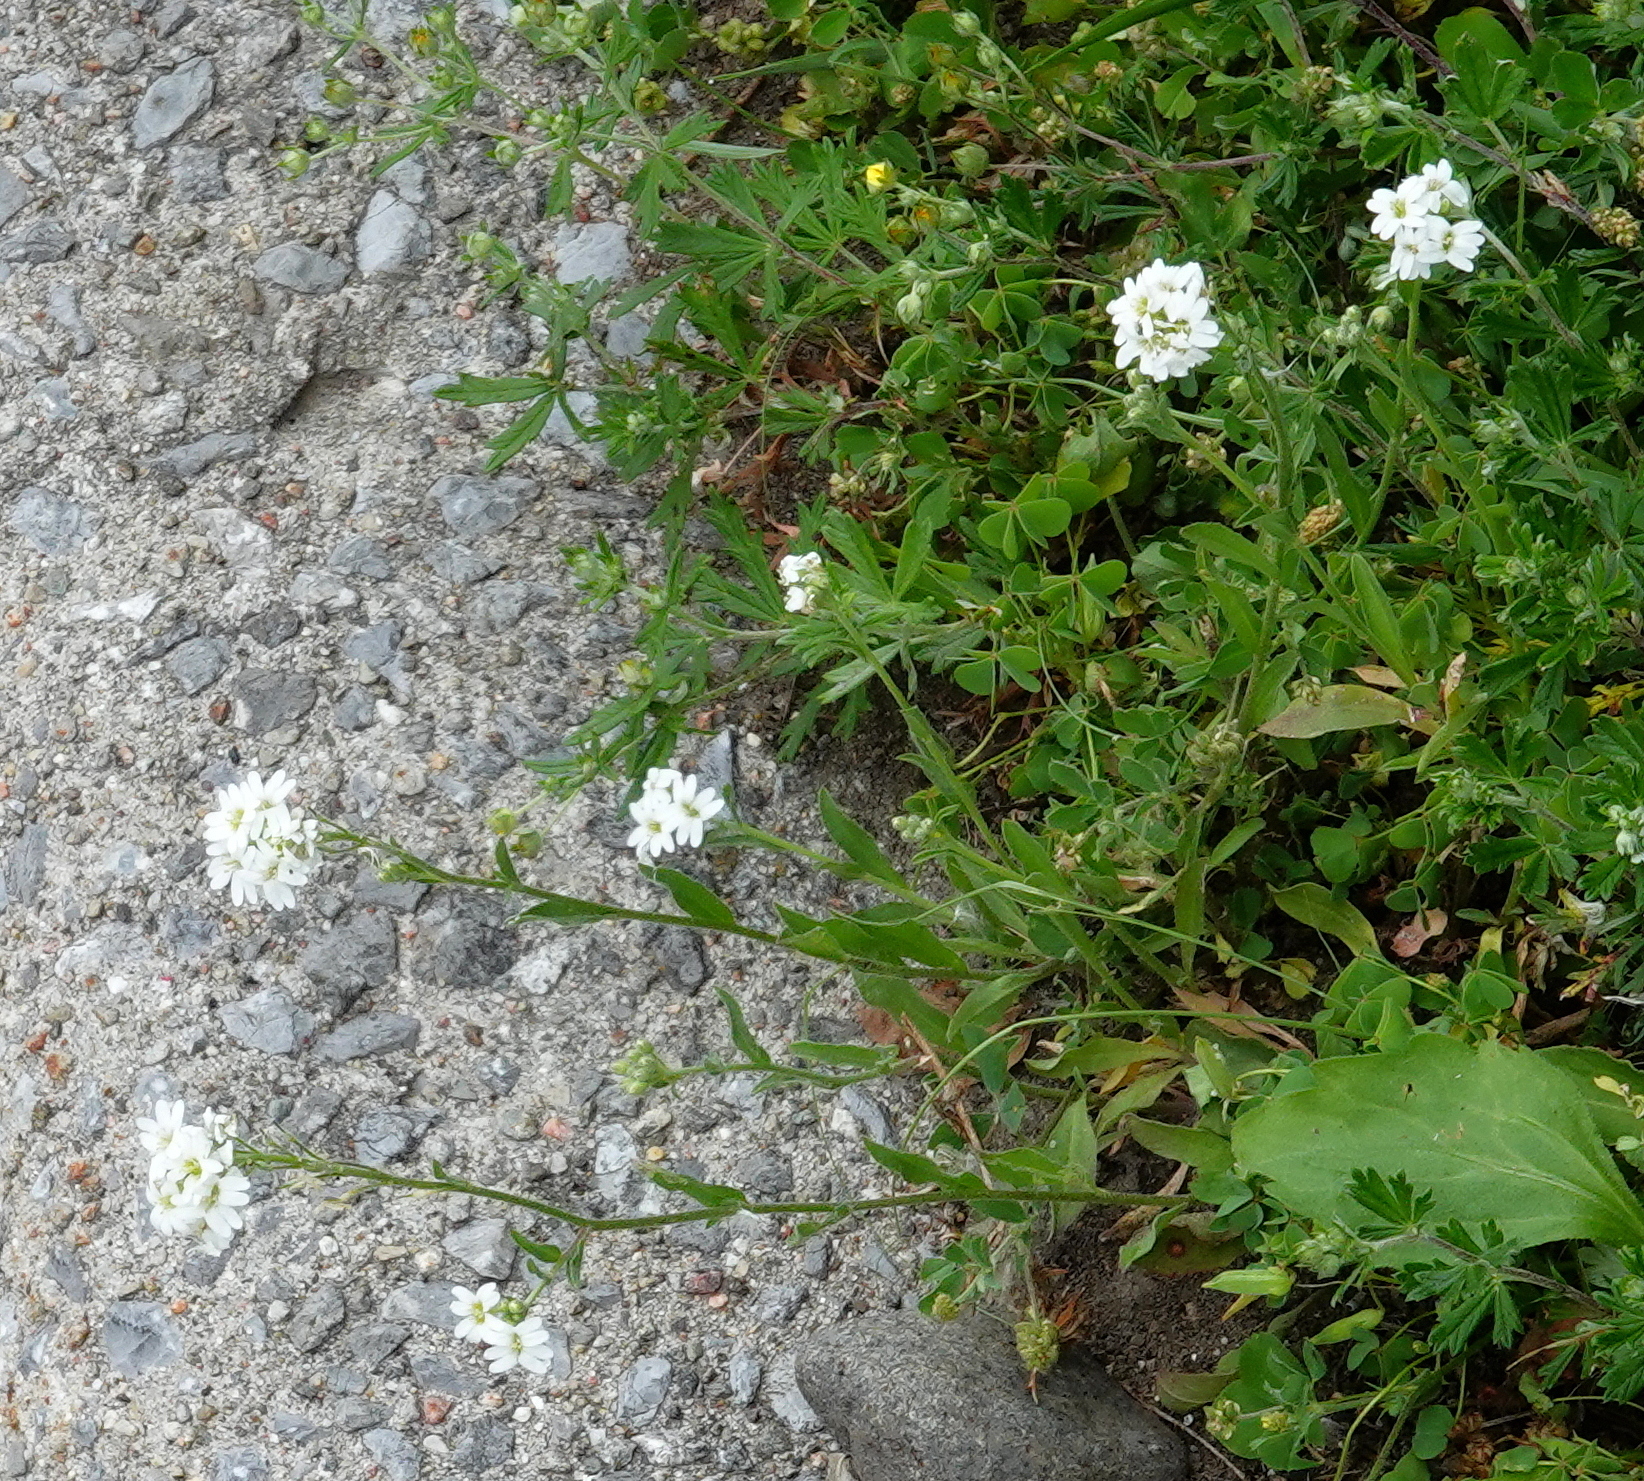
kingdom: Plantae
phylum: Tracheophyta
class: Magnoliopsida
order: Brassicales
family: Brassicaceae
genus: Berteroa
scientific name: Berteroa incana
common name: Hoary alison
